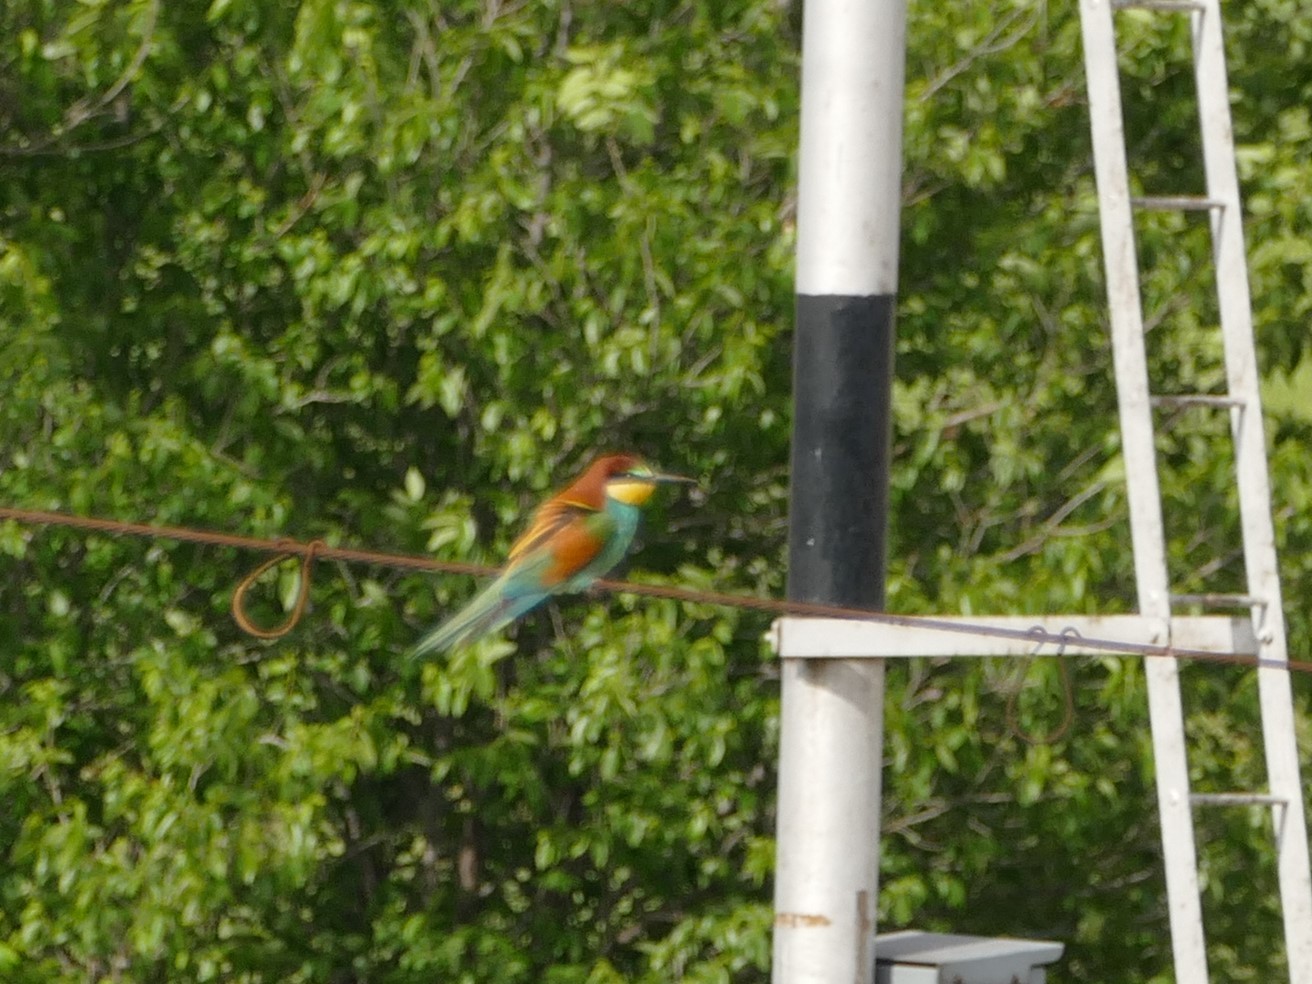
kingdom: Animalia
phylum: Chordata
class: Aves
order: Coraciiformes
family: Meropidae
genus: Merops
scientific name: Merops apiaster
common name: European bee-eater
